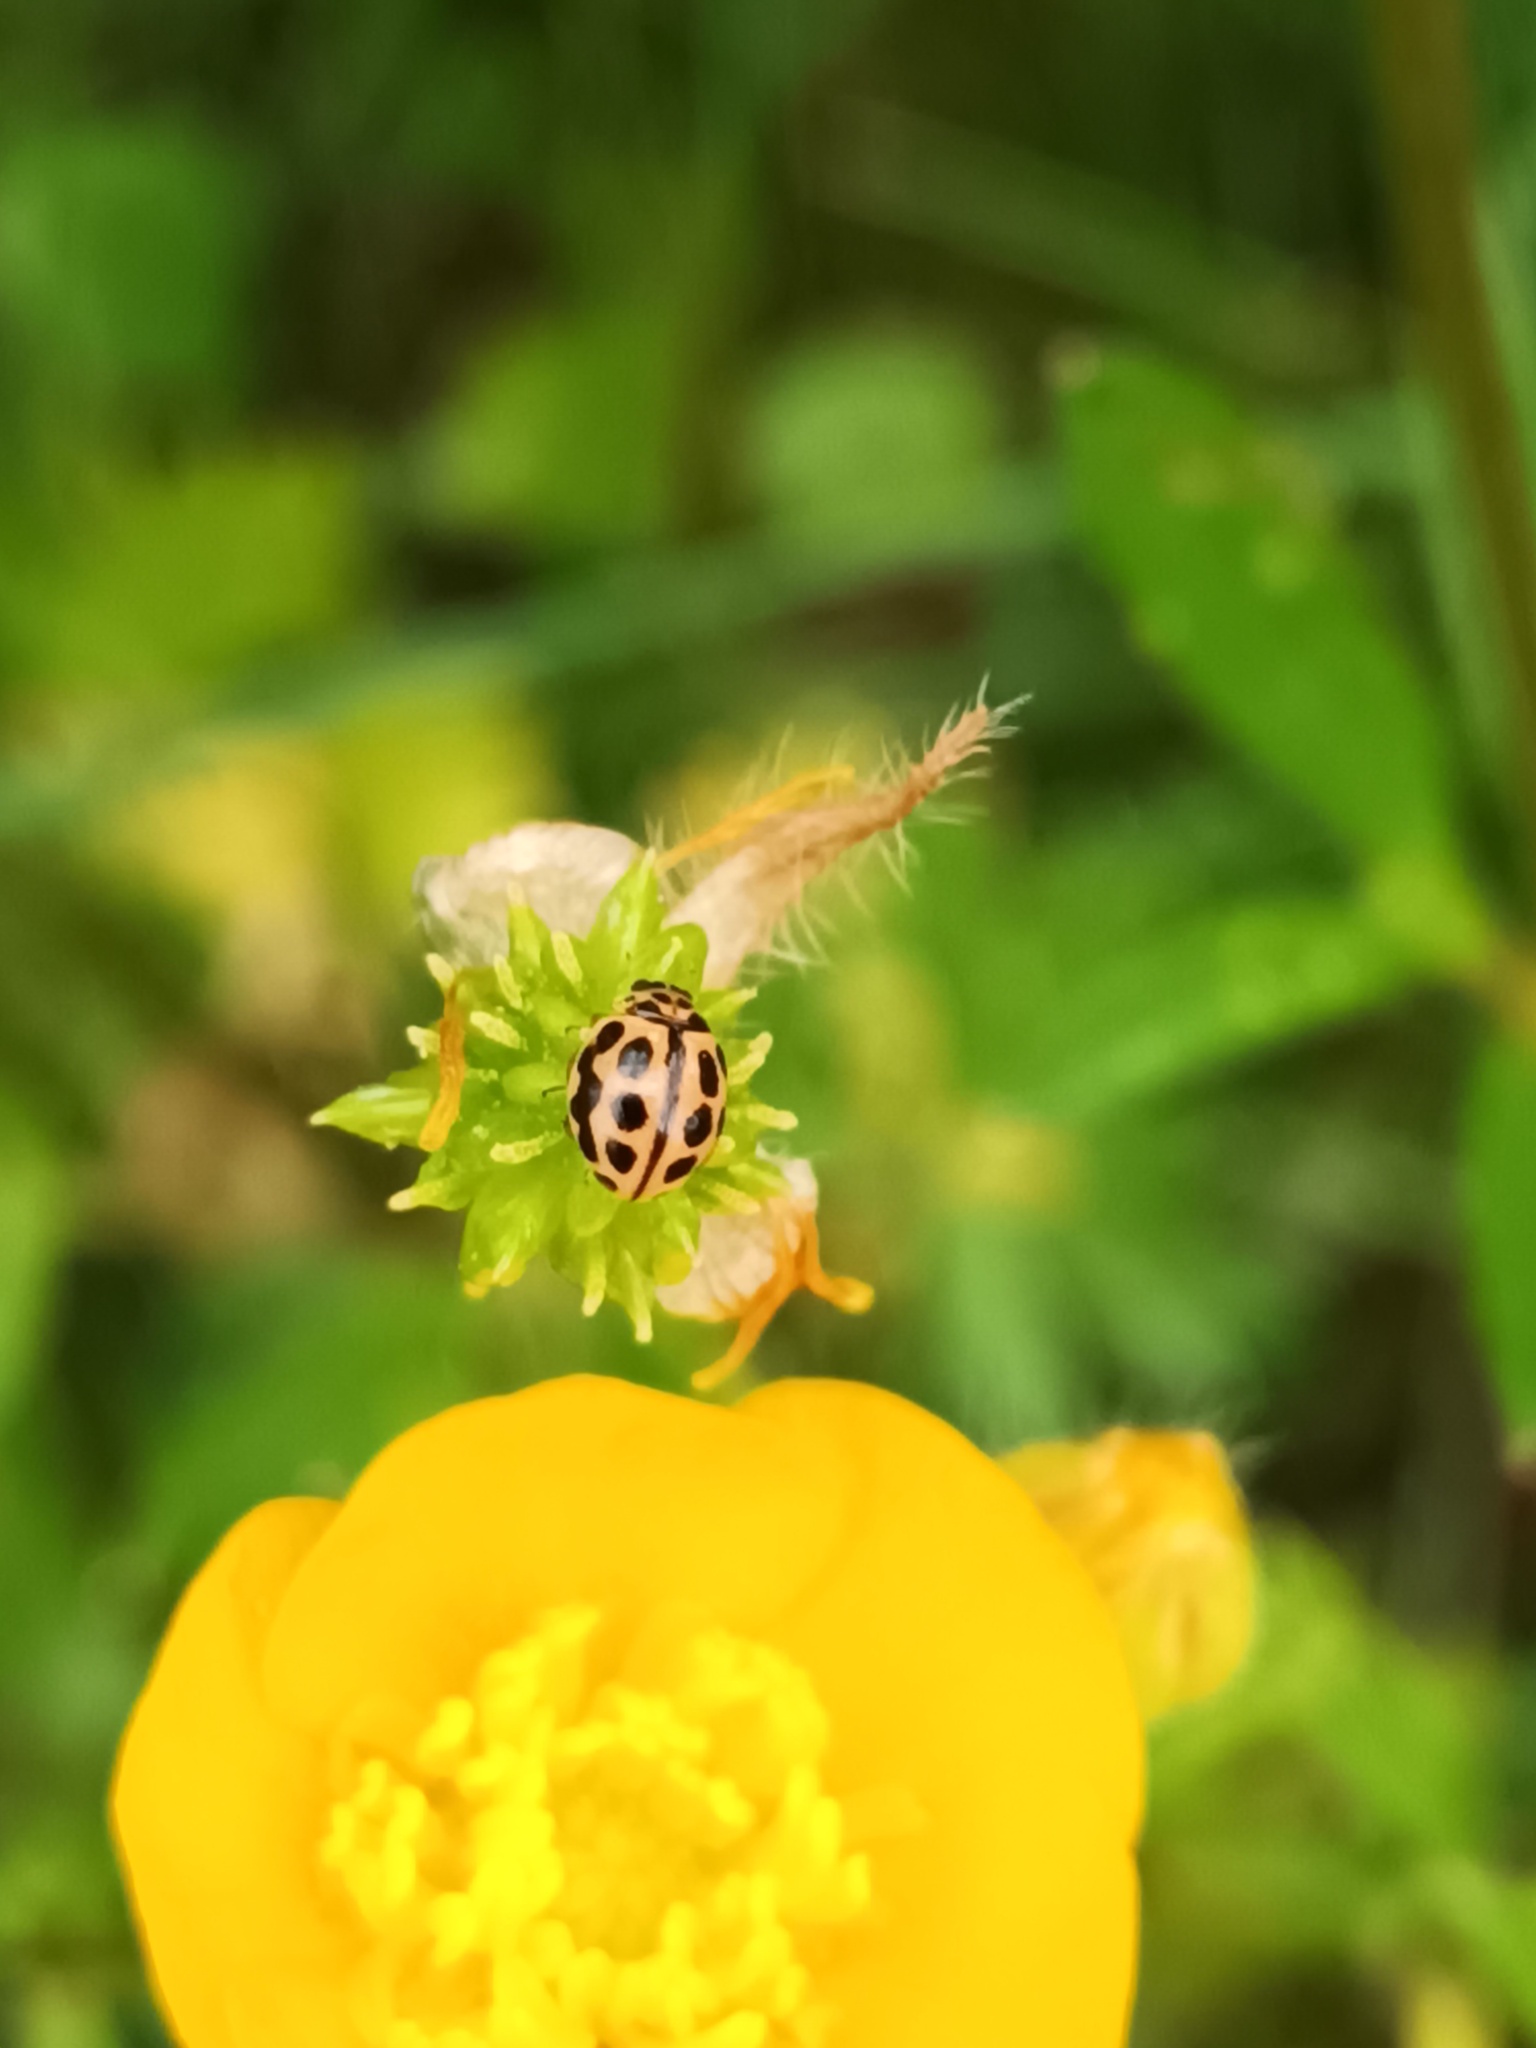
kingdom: Animalia
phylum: Arthropoda
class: Insecta
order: Coleoptera
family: Coccinellidae
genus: Tytthaspis
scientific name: Tytthaspis sedecimpunctata
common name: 16-spot ladybird
